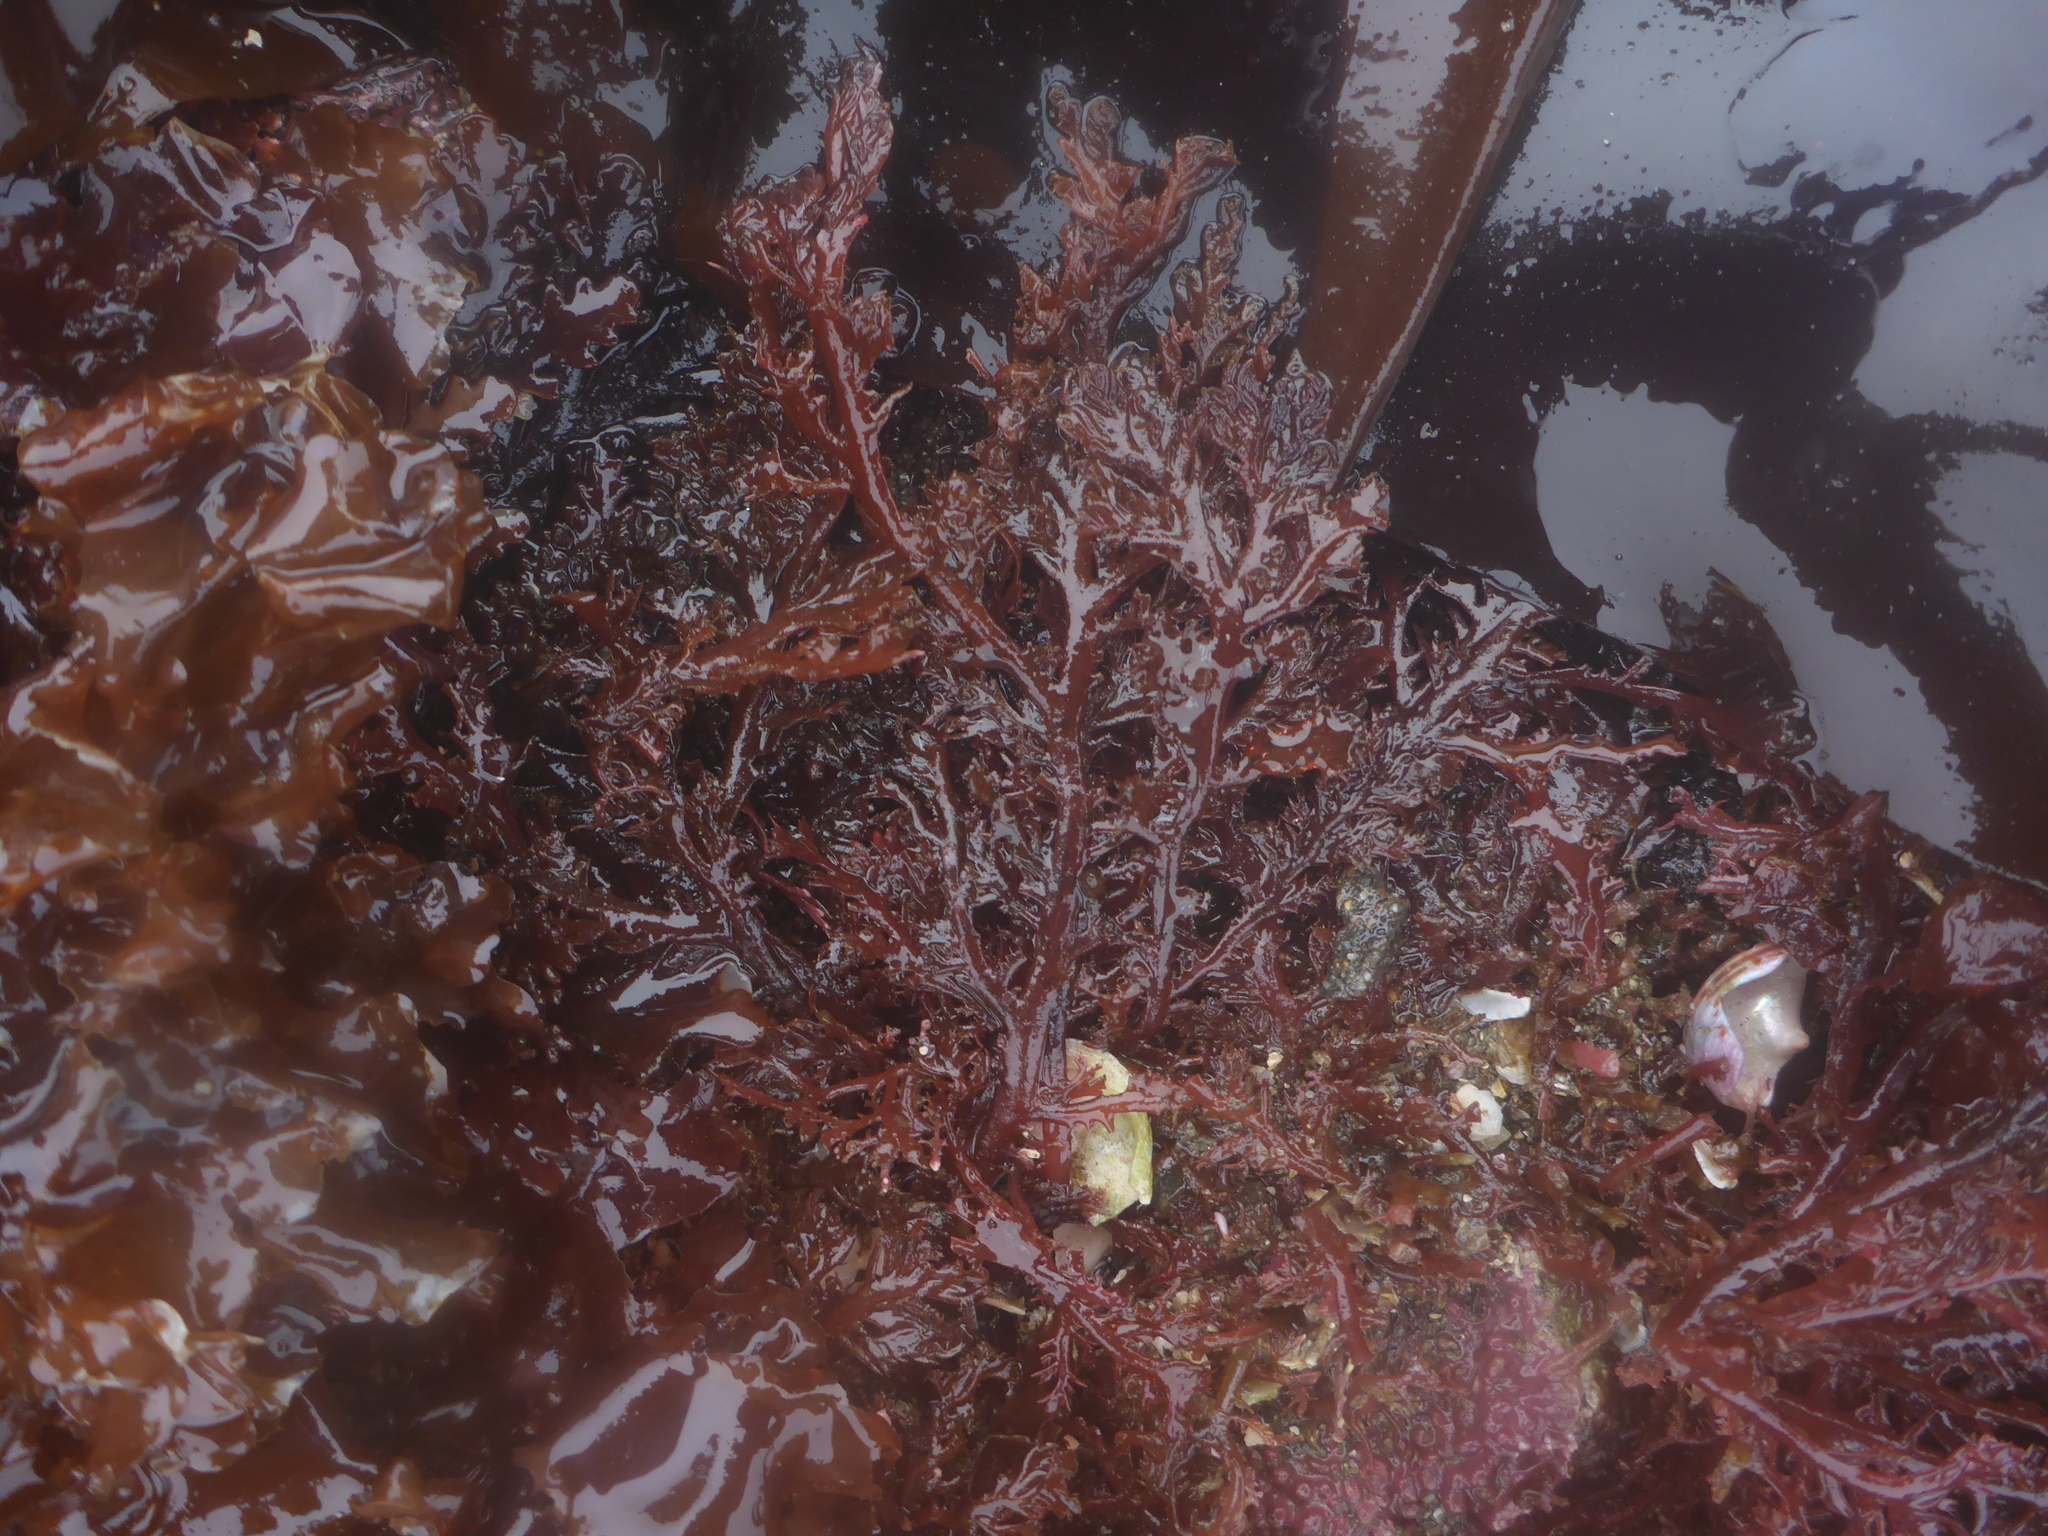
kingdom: Plantae
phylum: Rhodophyta
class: Florideophyceae
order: Plocamiales
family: Plocamiaceae
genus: Plocamium
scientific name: Plocamium cartilagineum
